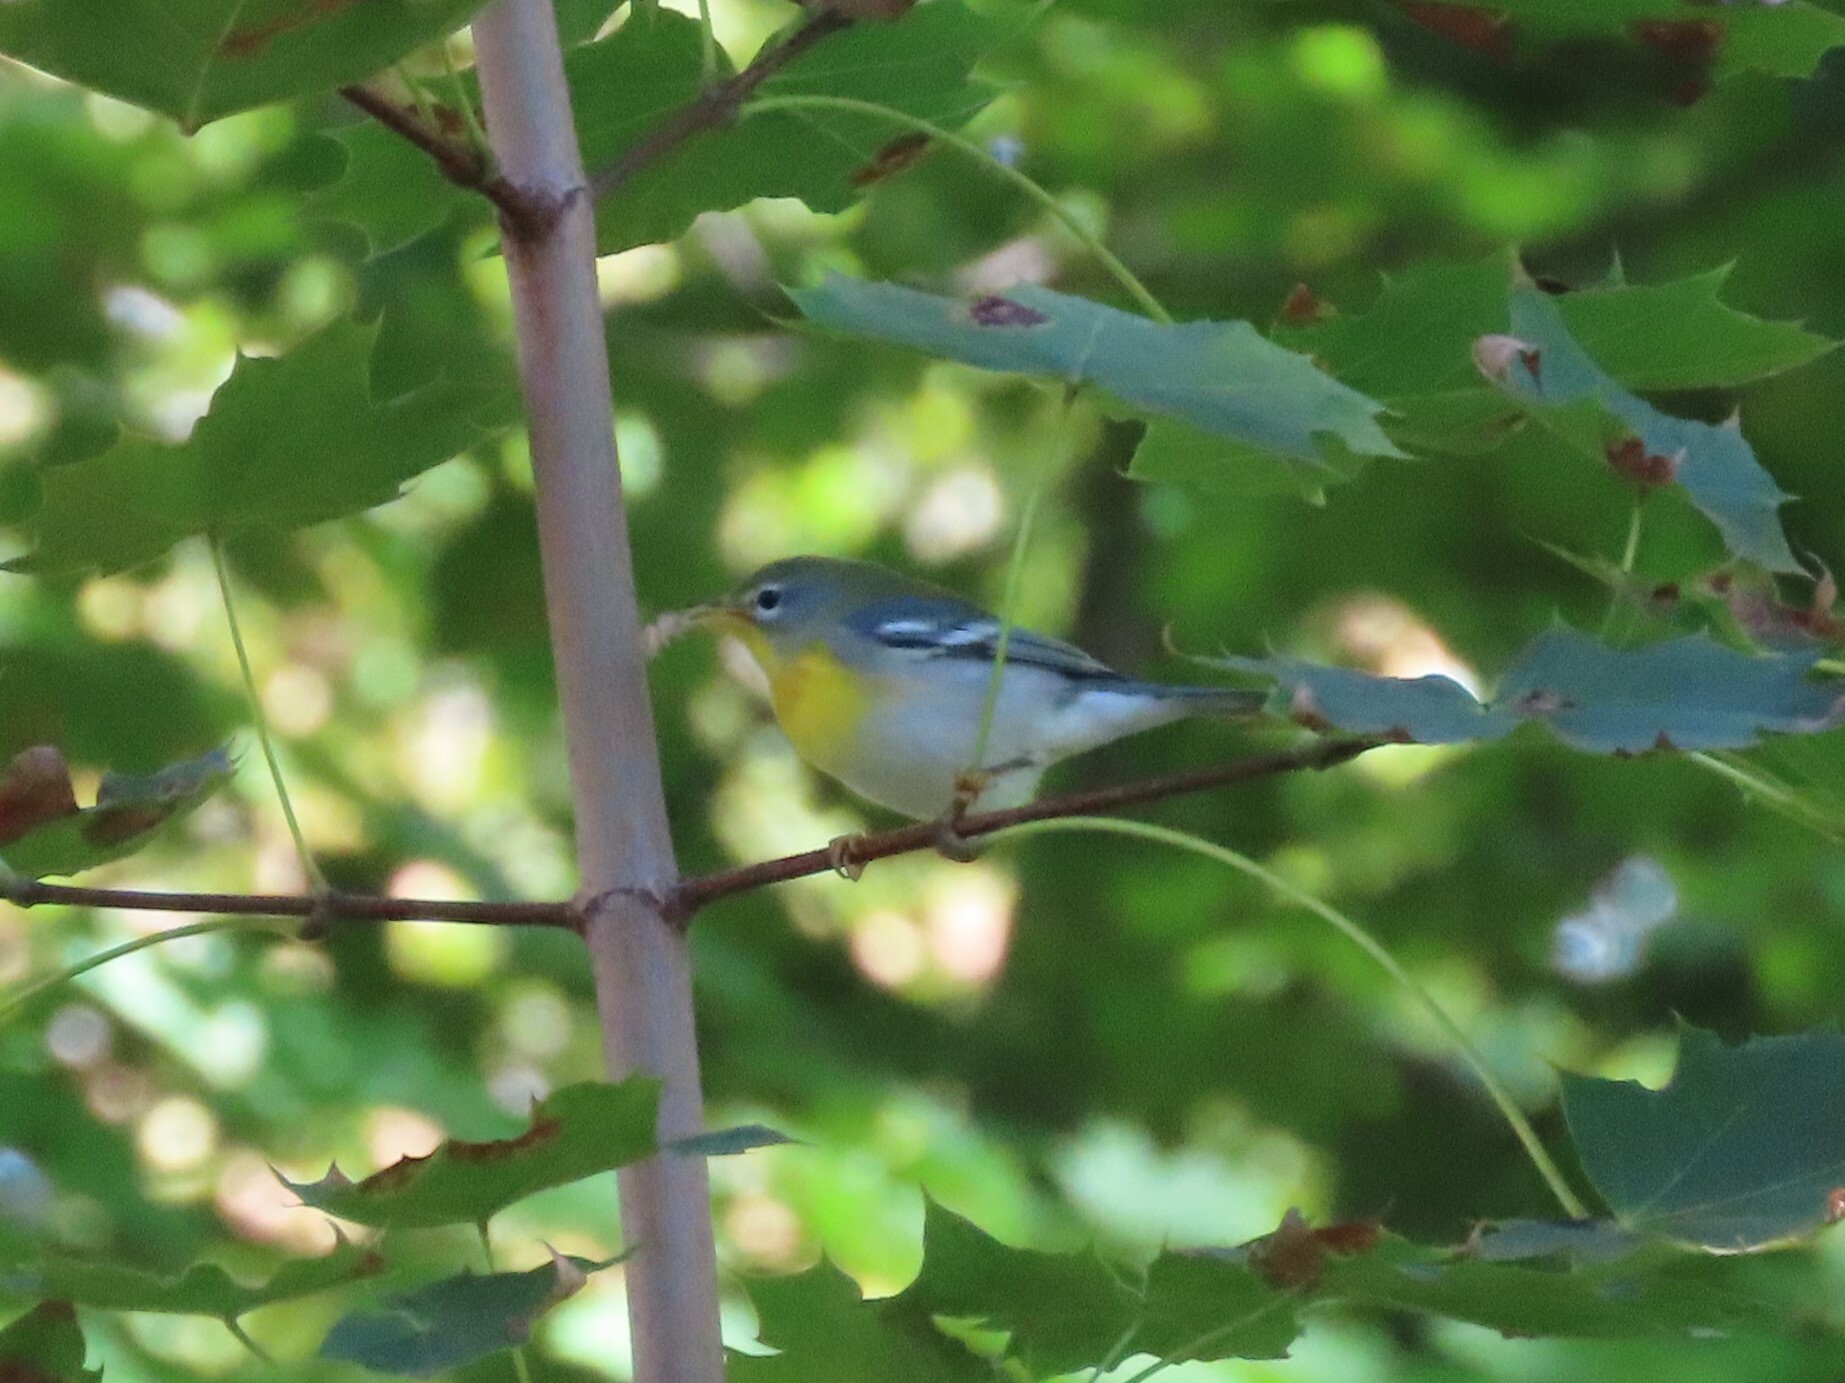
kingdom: Animalia
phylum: Chordata
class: Aves
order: Passeriformes
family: Parulidae
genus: Setophaga
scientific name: Setophaga americana
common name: Northern parula
